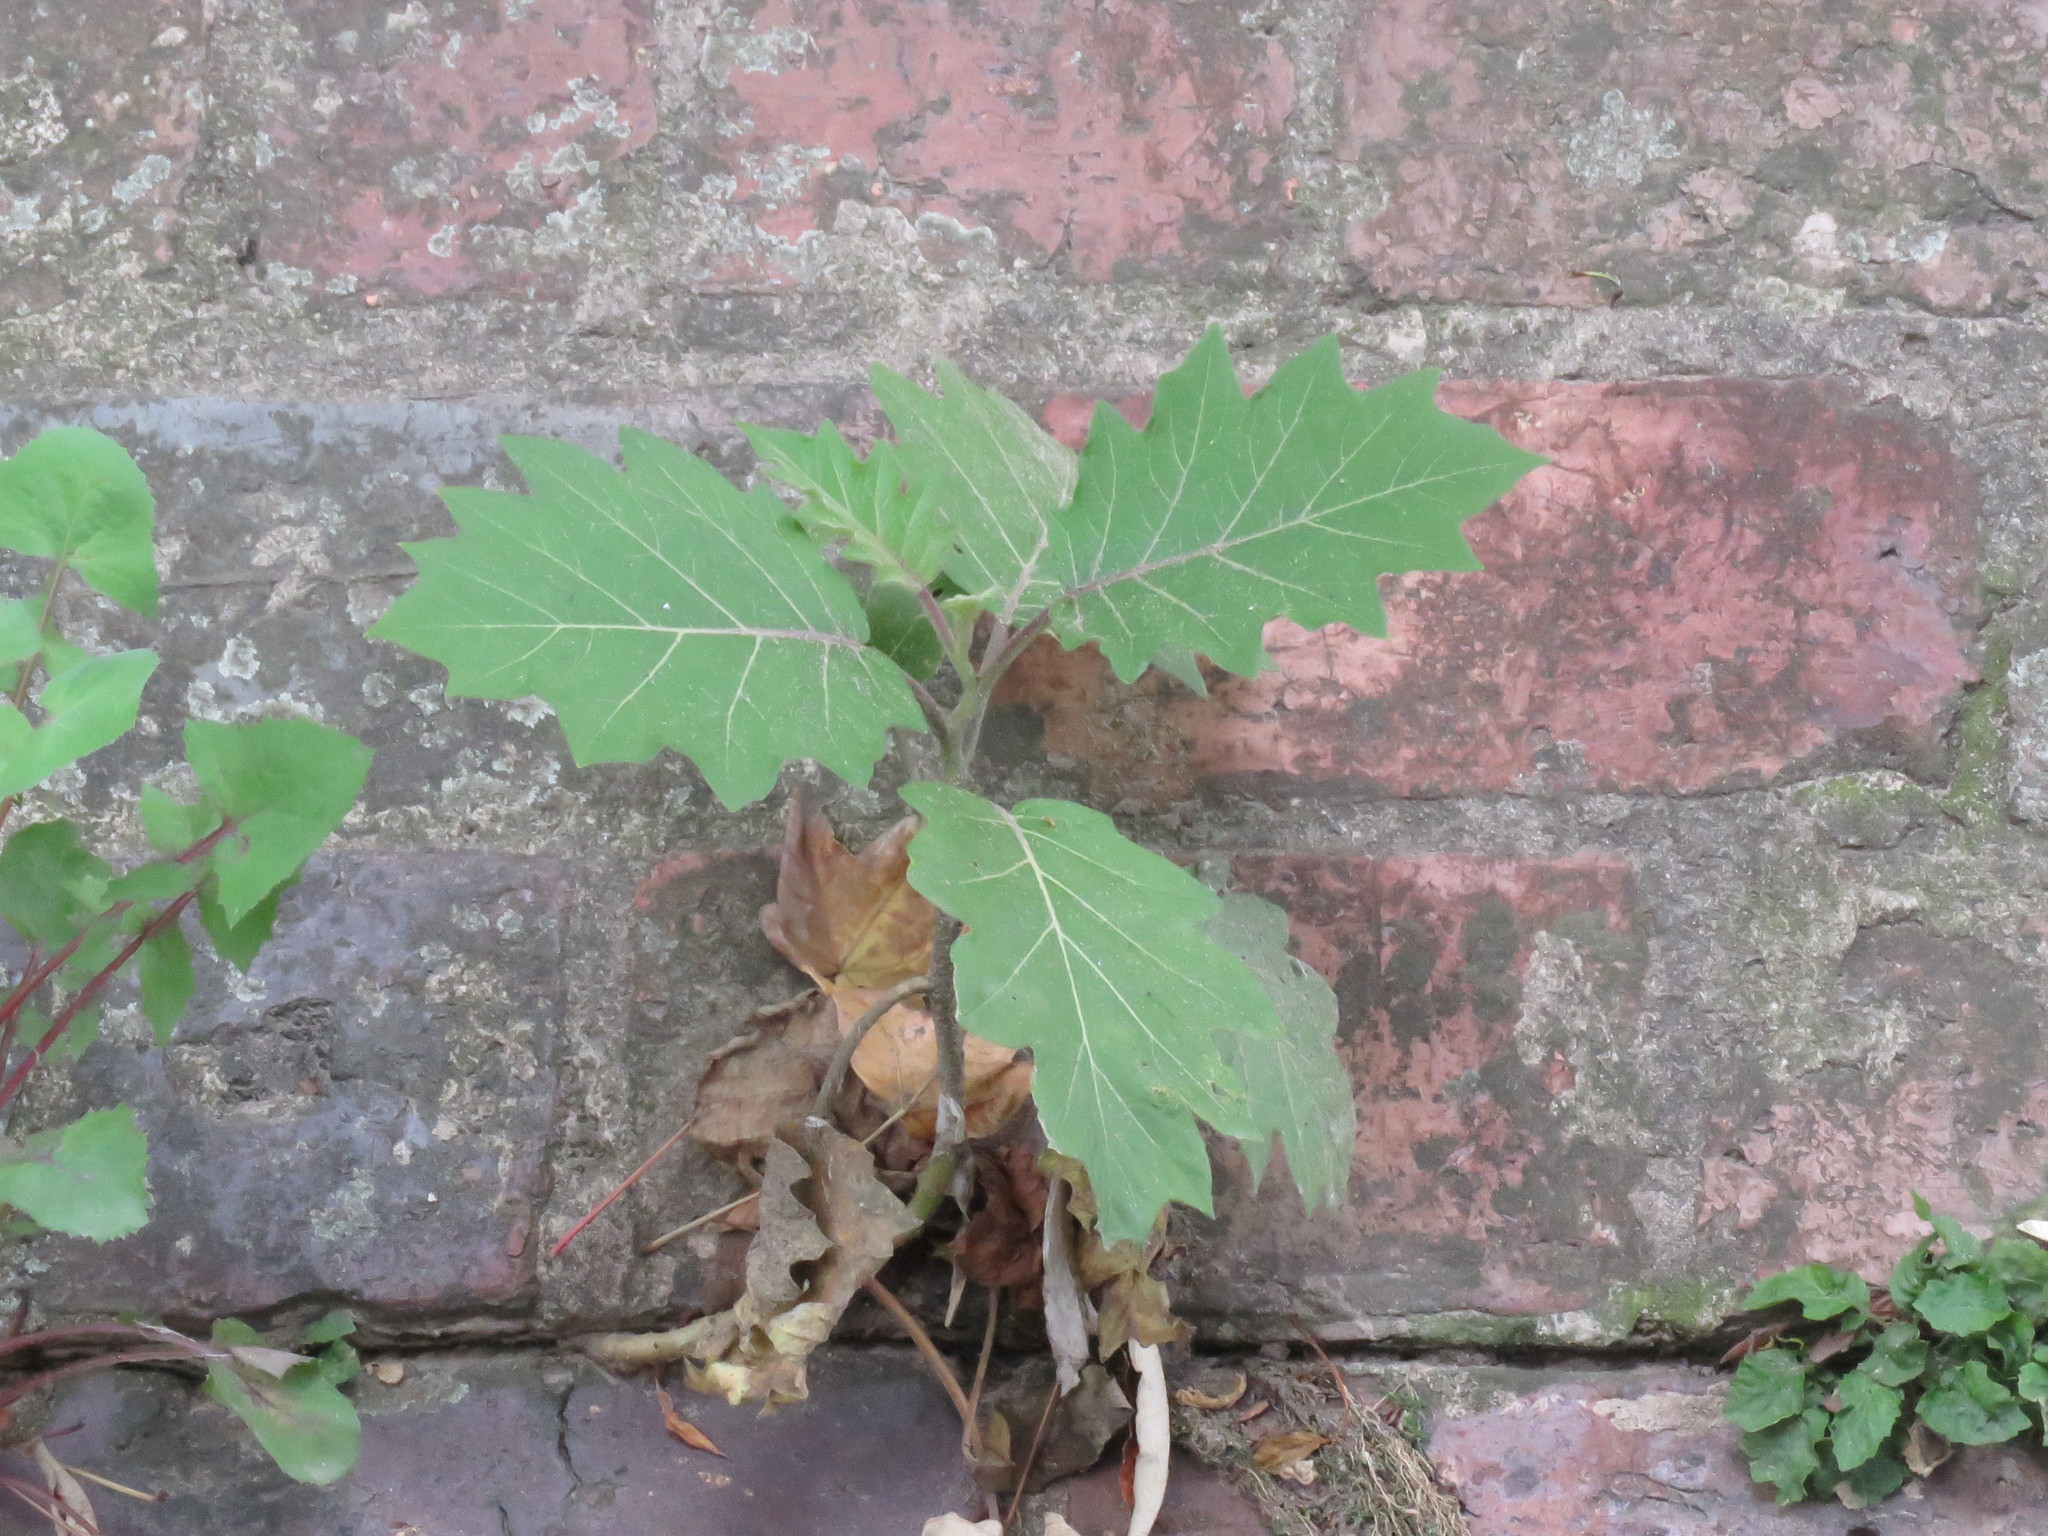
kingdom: Plantae
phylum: Tracheophyta
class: Magnoliopsida
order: Solanales
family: Solanaceae
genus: Solanum
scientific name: Solanum quitoense
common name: Quito-orange
